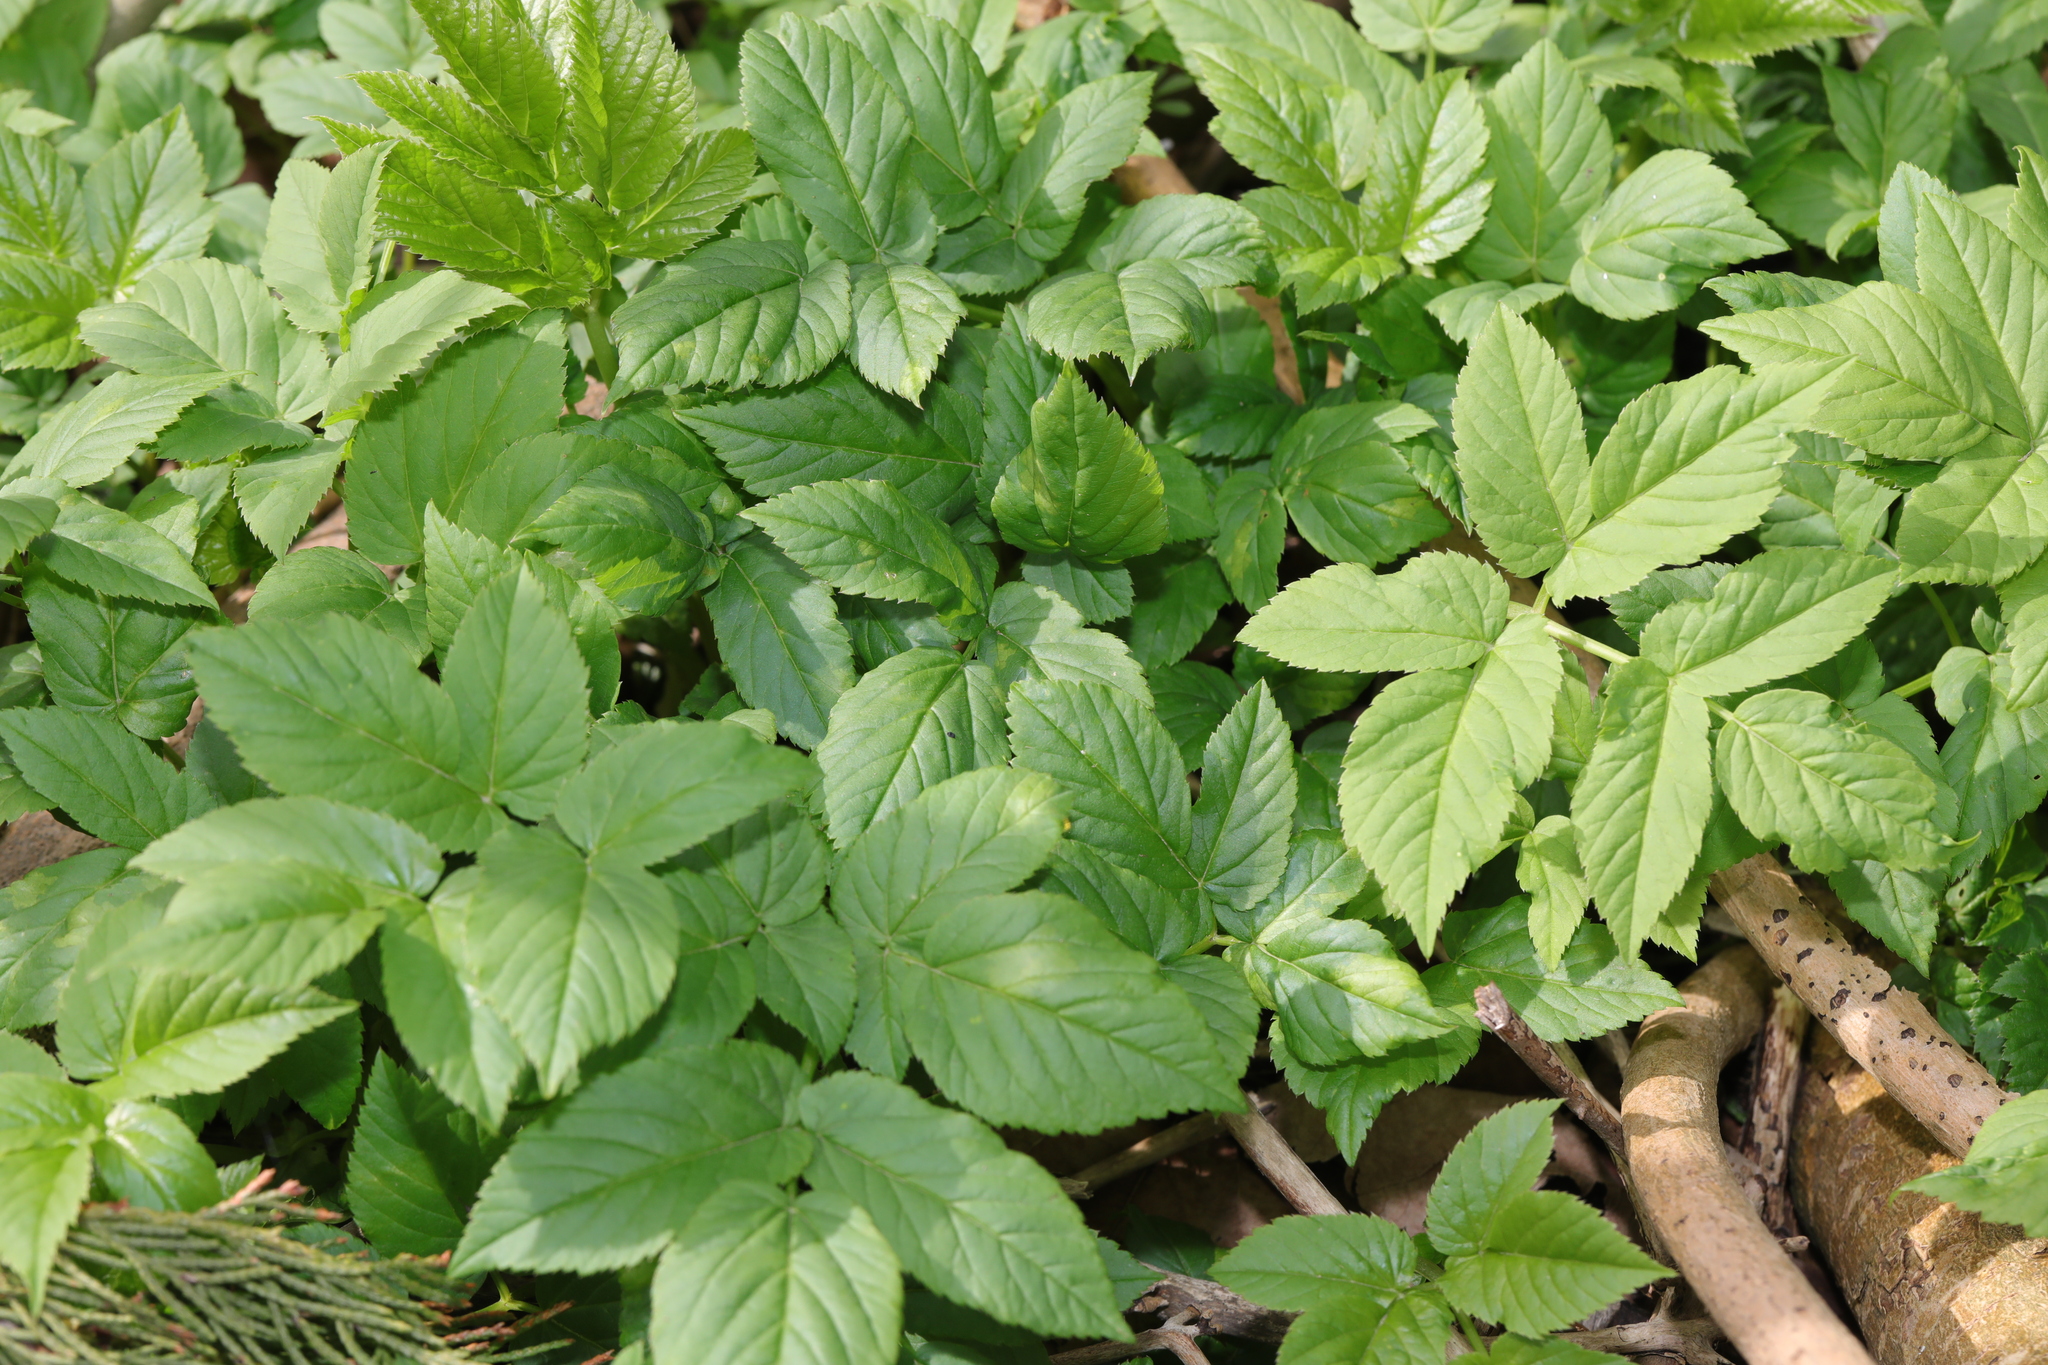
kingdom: Plantae
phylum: Tracheophyta
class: Magnoliopsida
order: Apiales
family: Apiaceae
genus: Aegopodium
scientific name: Aegopodium podagraria
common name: Ground-elder
